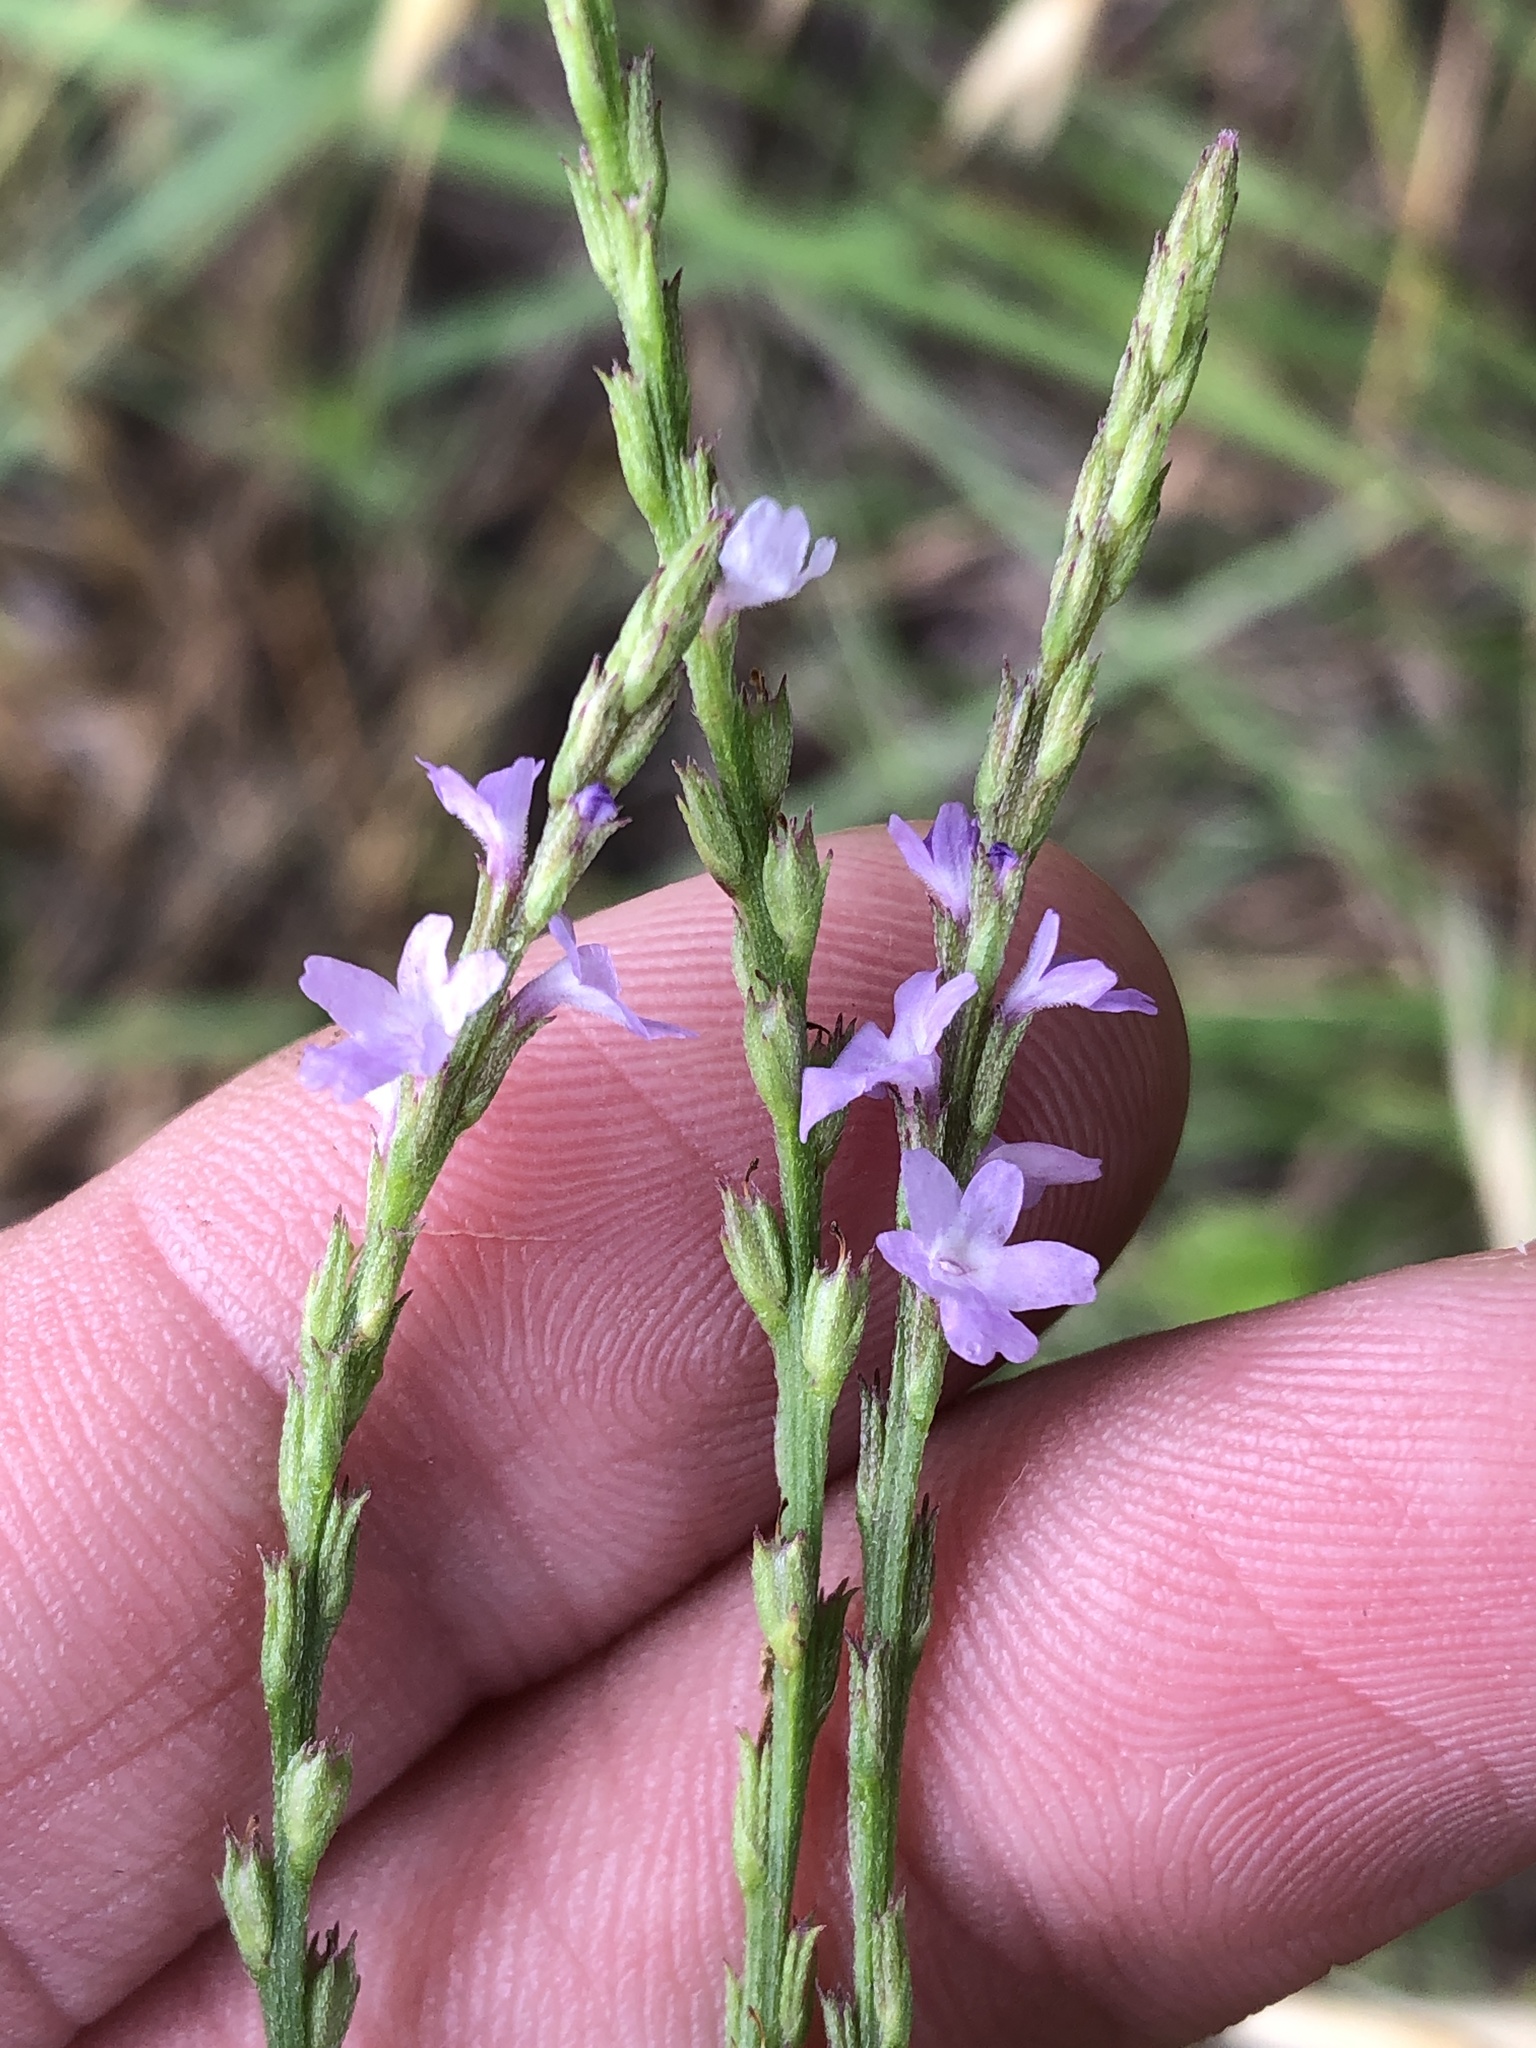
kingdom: Plantae
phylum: Tracheophyta
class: Magnoliopsida
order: Lamiales
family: Verbenaceae
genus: Verbena
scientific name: Verbena halei
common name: Texas vervain
